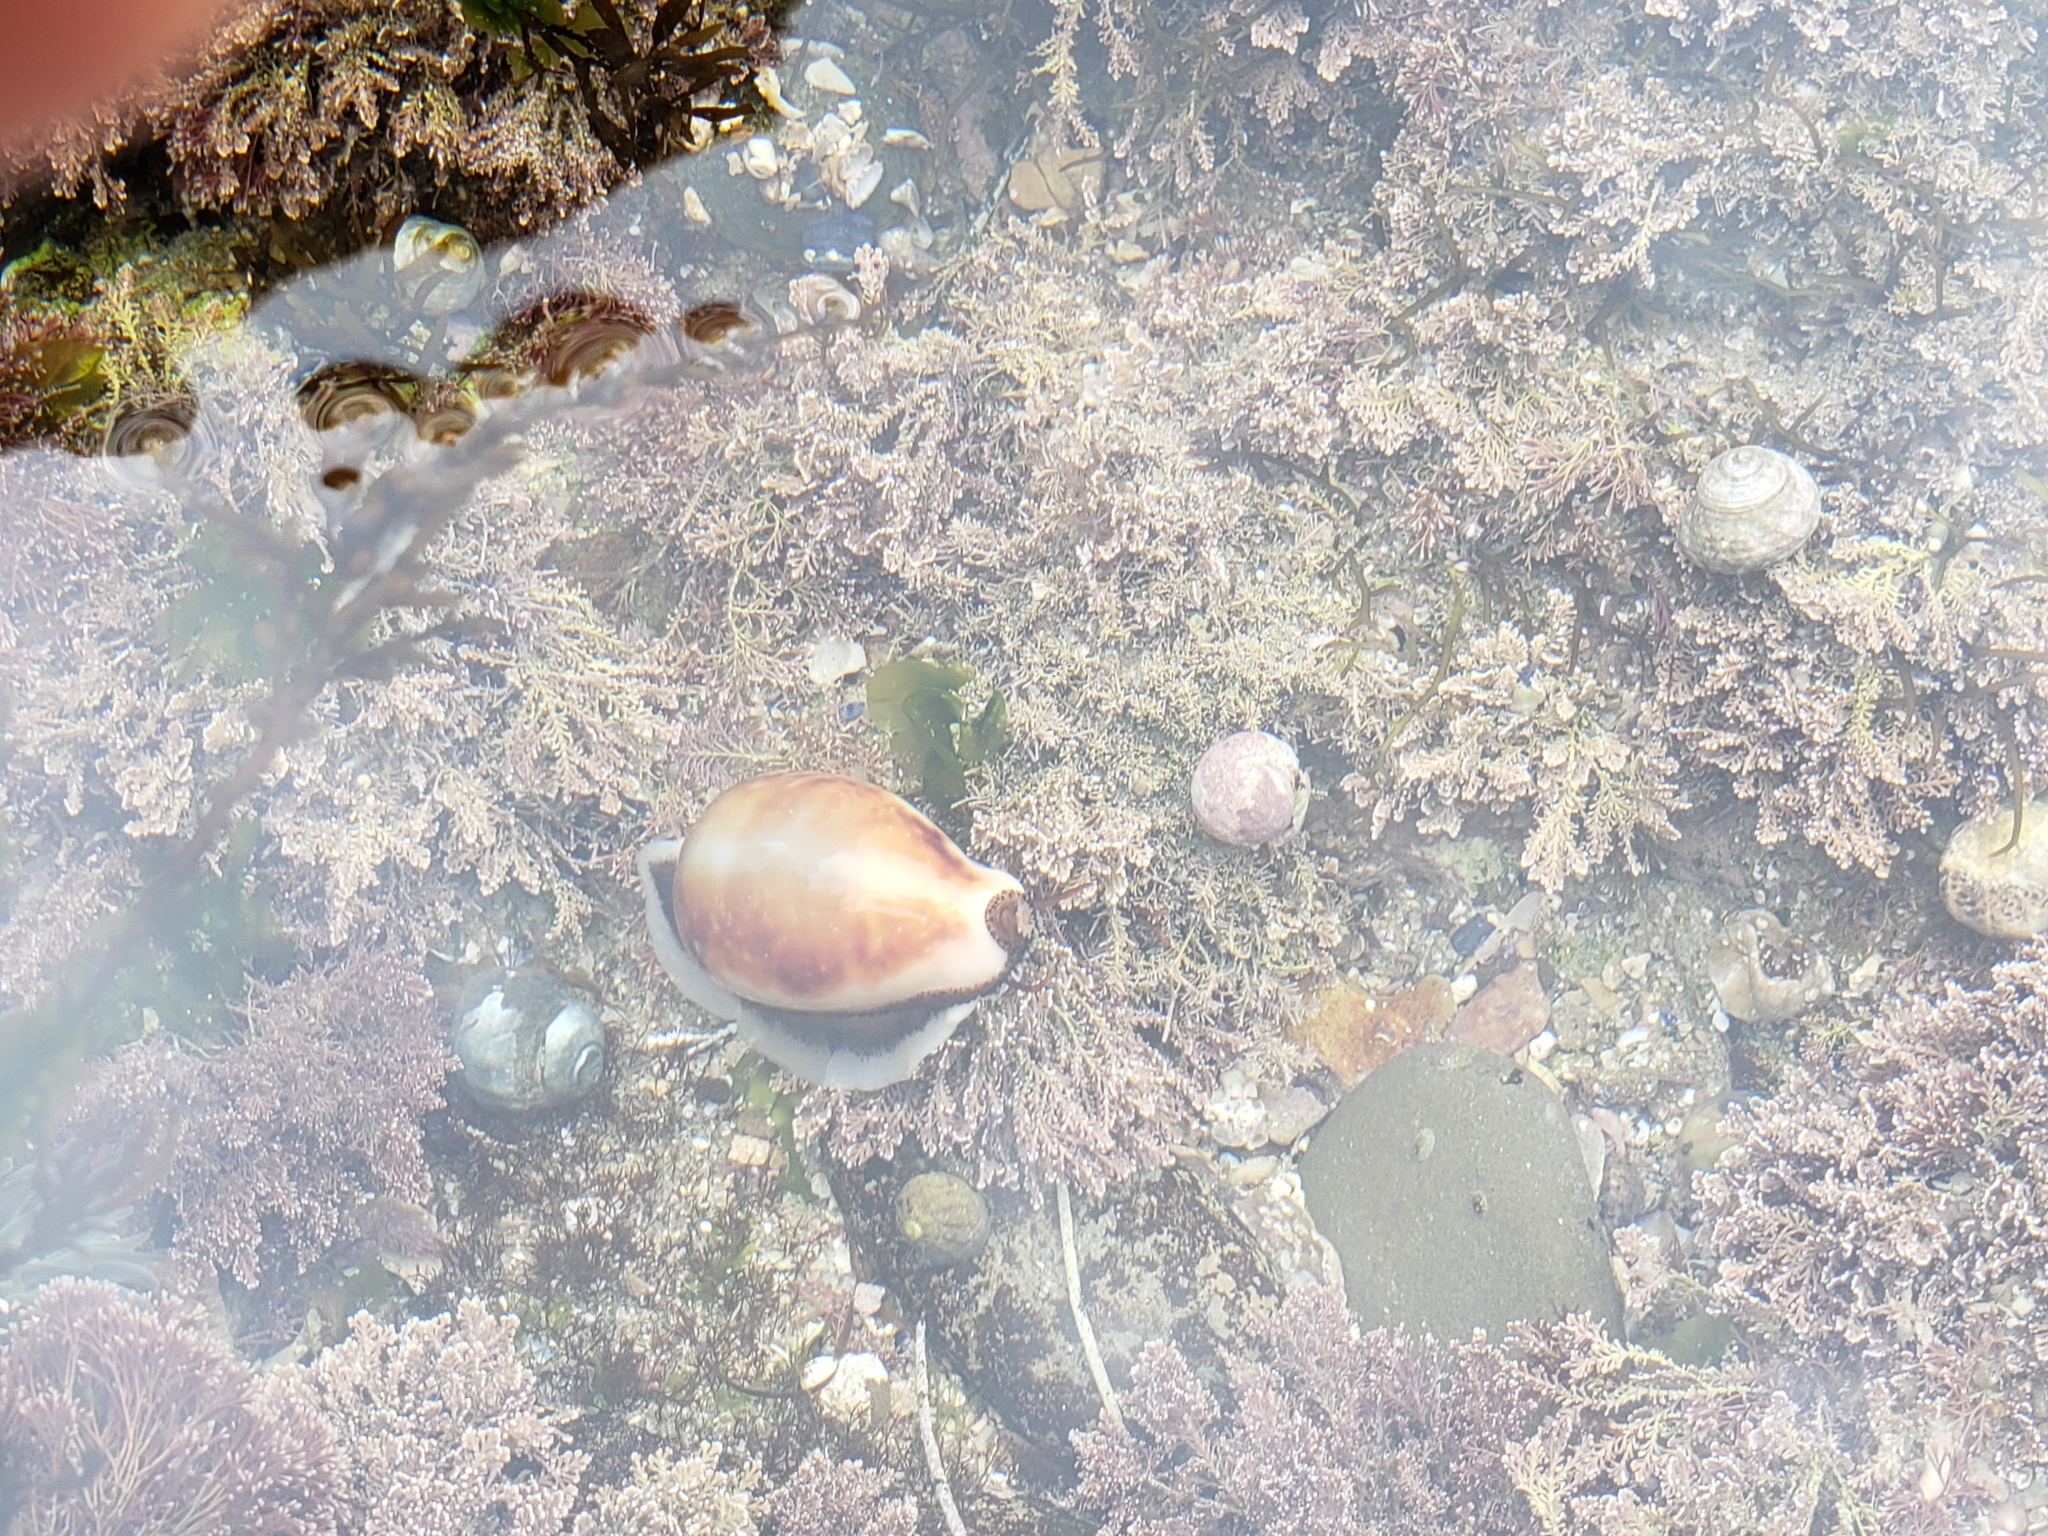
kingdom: Animalia
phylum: Mollusca
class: Gastropoda
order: Littorinimorpha
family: Cypraeidae
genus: Neobernaya
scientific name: Neobernaya spadicea
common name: Chestnut cowrie
